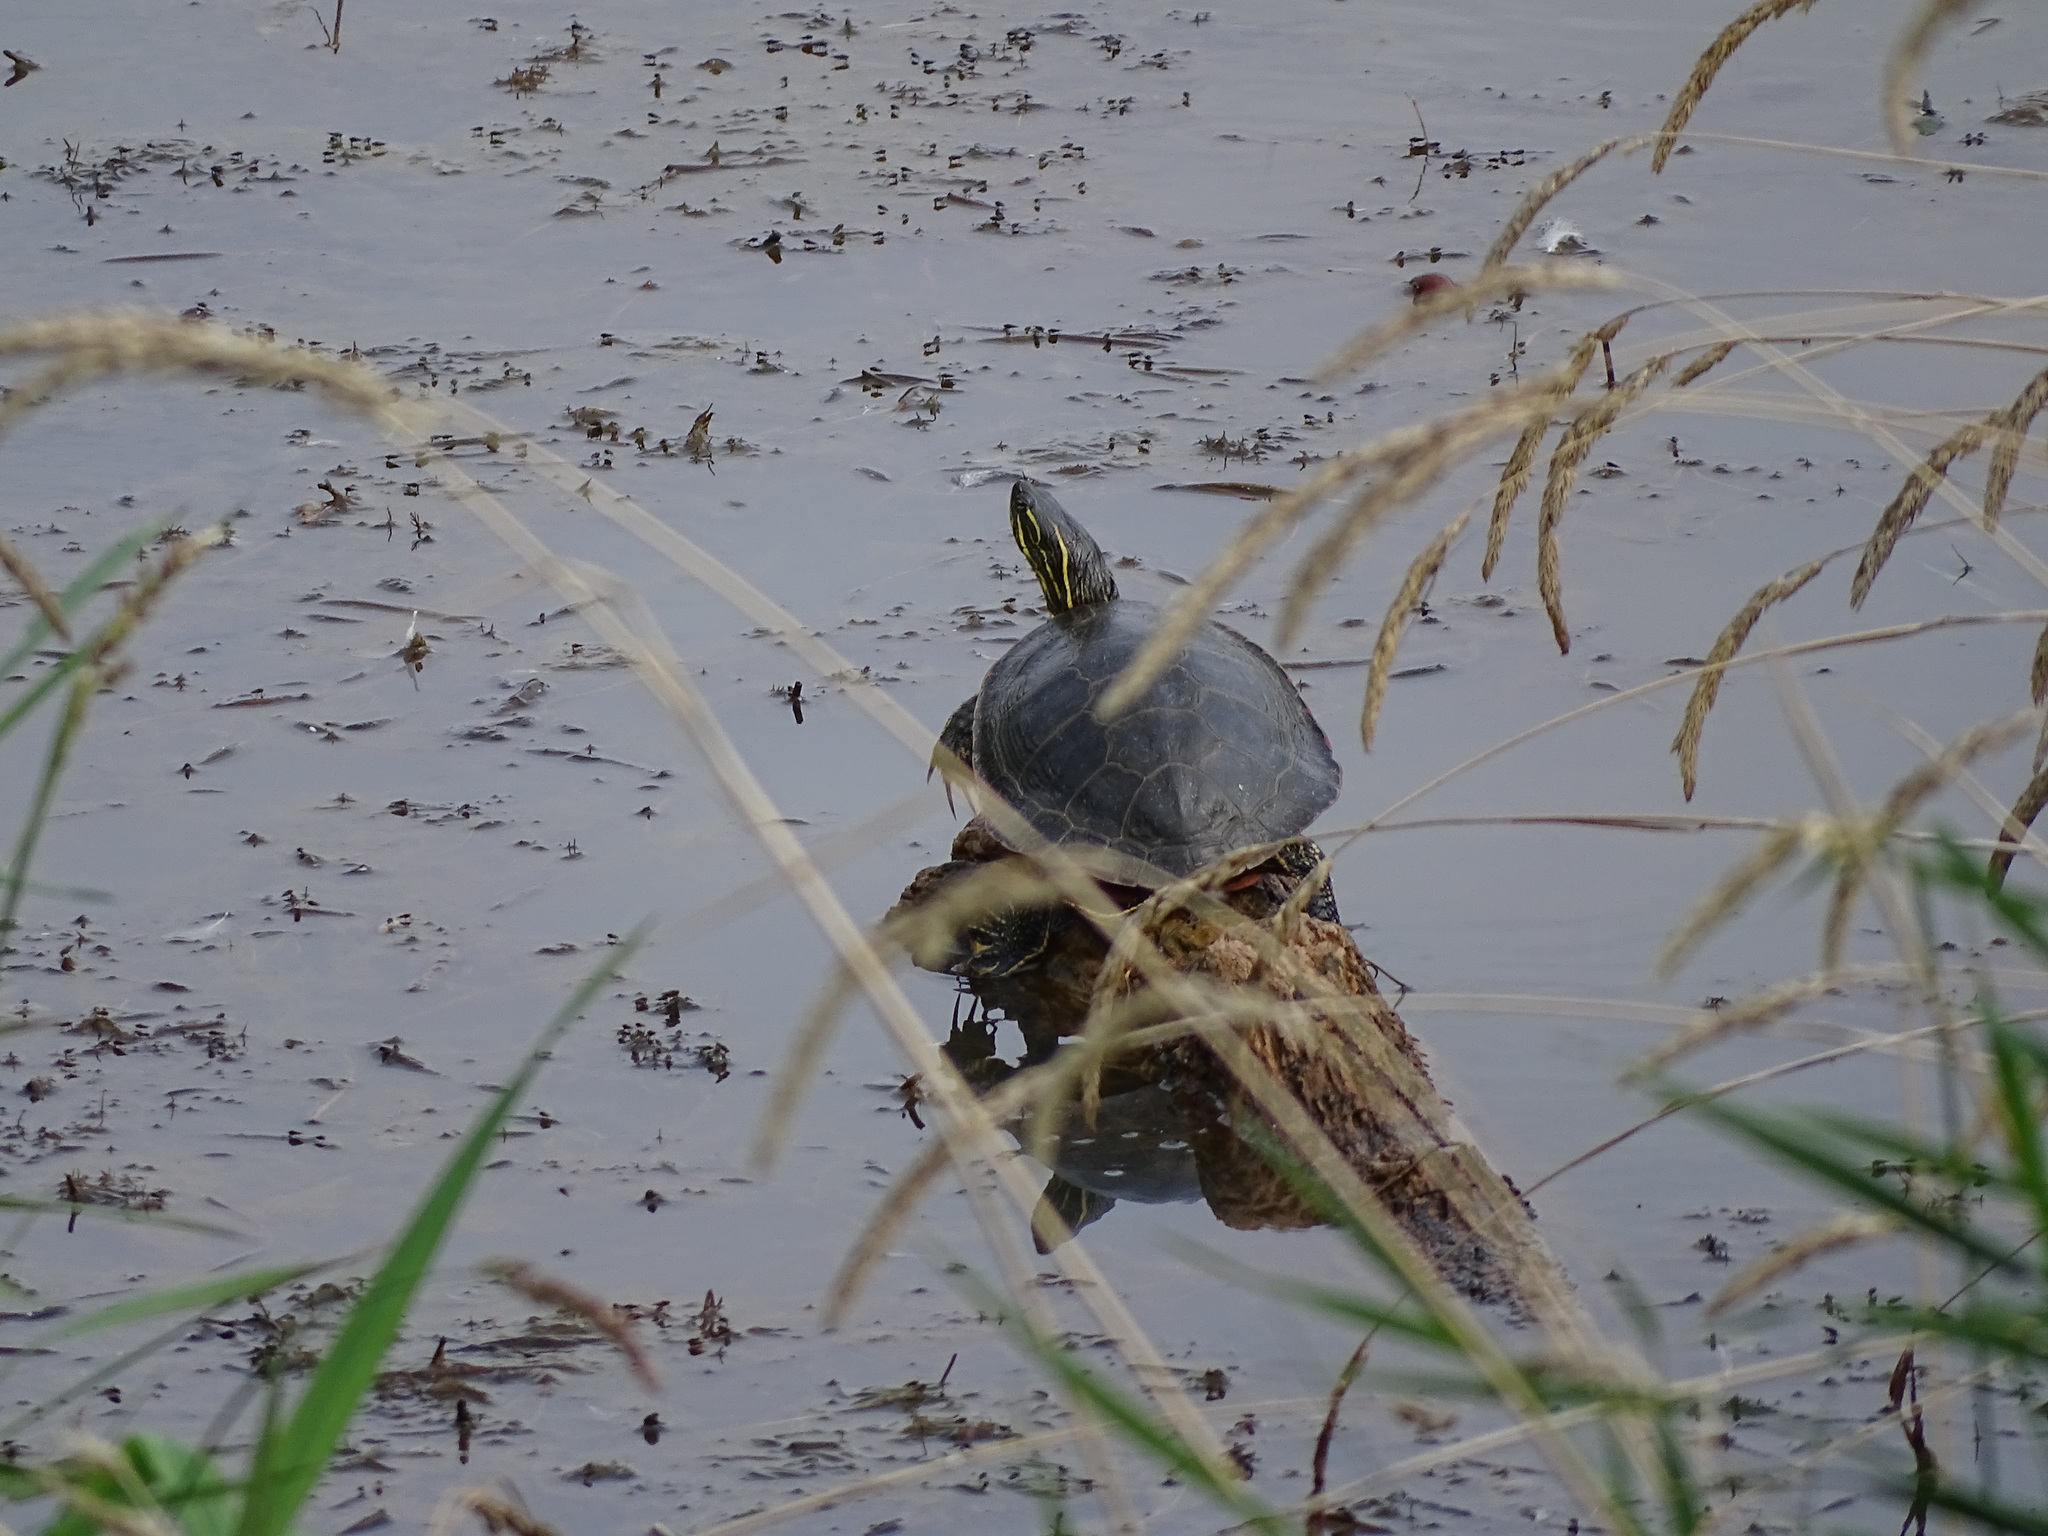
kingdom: Animalia
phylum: Chordata
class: Testudines
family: Emydidae
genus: Chrysemys
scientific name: Chrysemys picta
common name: Painted turtle
